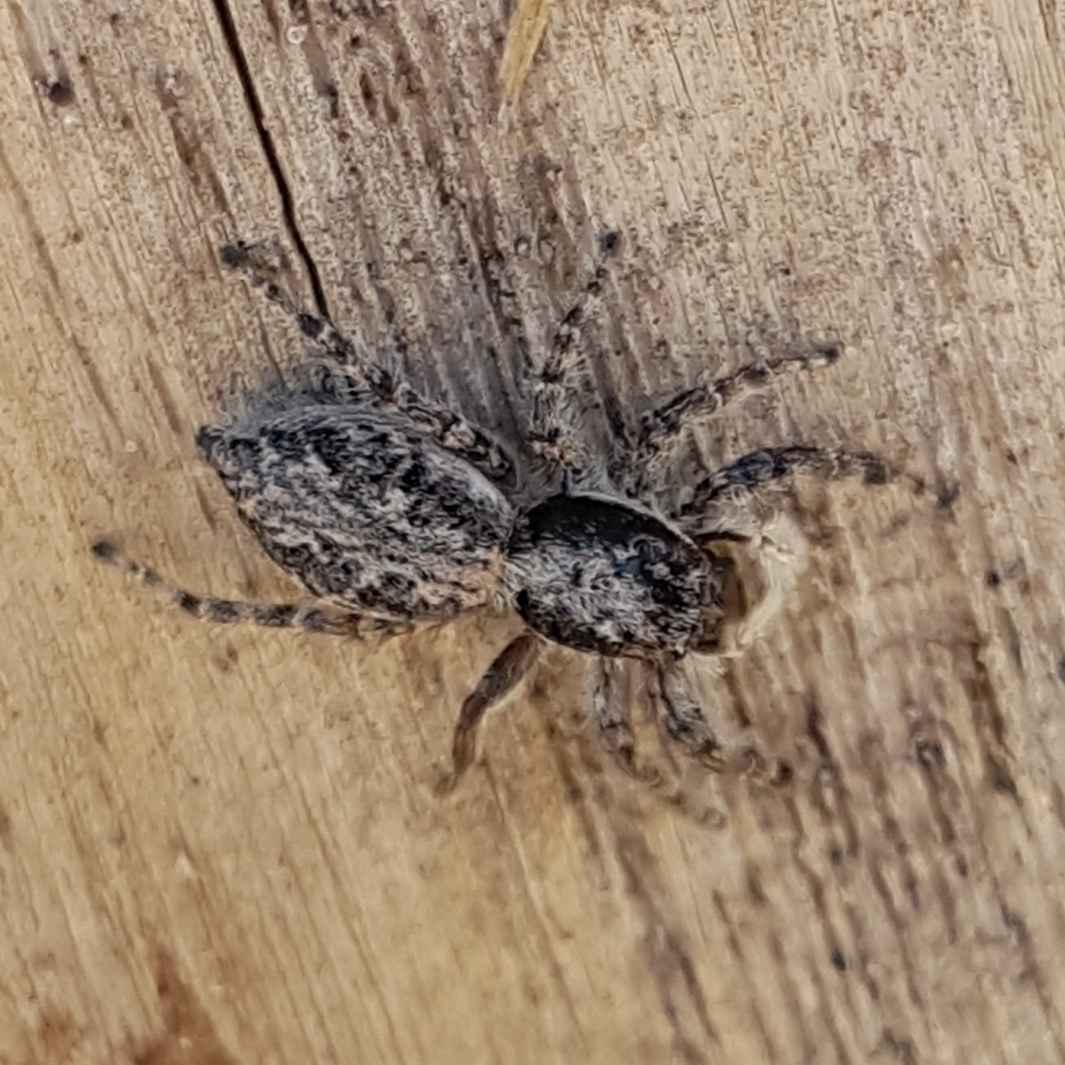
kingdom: Animalia
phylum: Arthropoda
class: Arachnida
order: Araneae
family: Salticidae
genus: Menemerus
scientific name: Menemerus taeniatus
